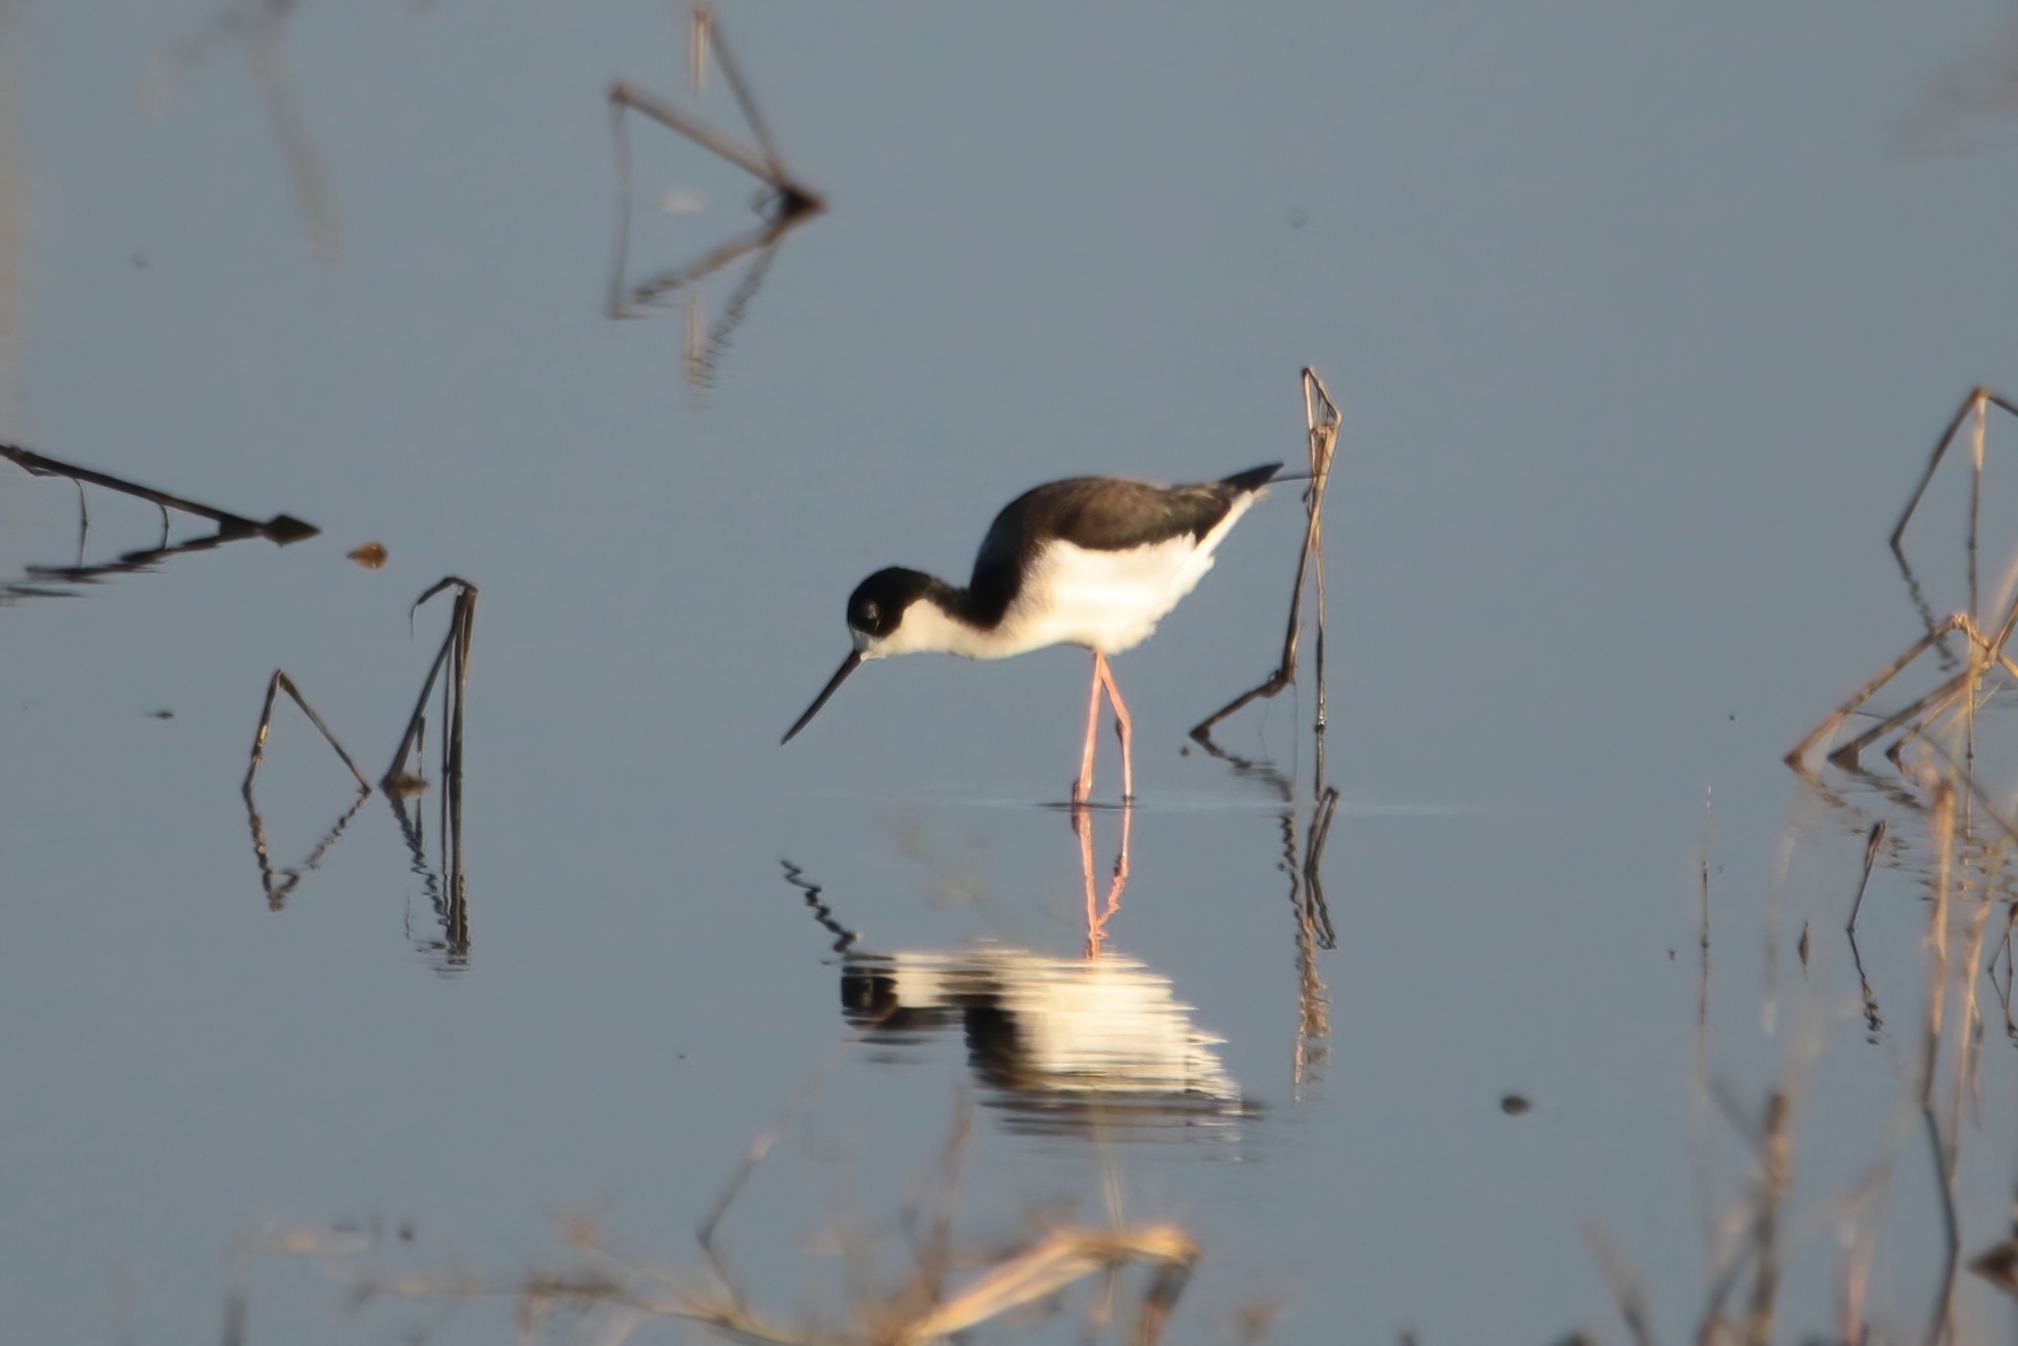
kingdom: Animalia
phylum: Chordata
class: Aves
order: Charadriiformes
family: Recurvirostridae
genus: Himantopus
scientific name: Himantopus mexicanus
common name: Black-necked stilt
